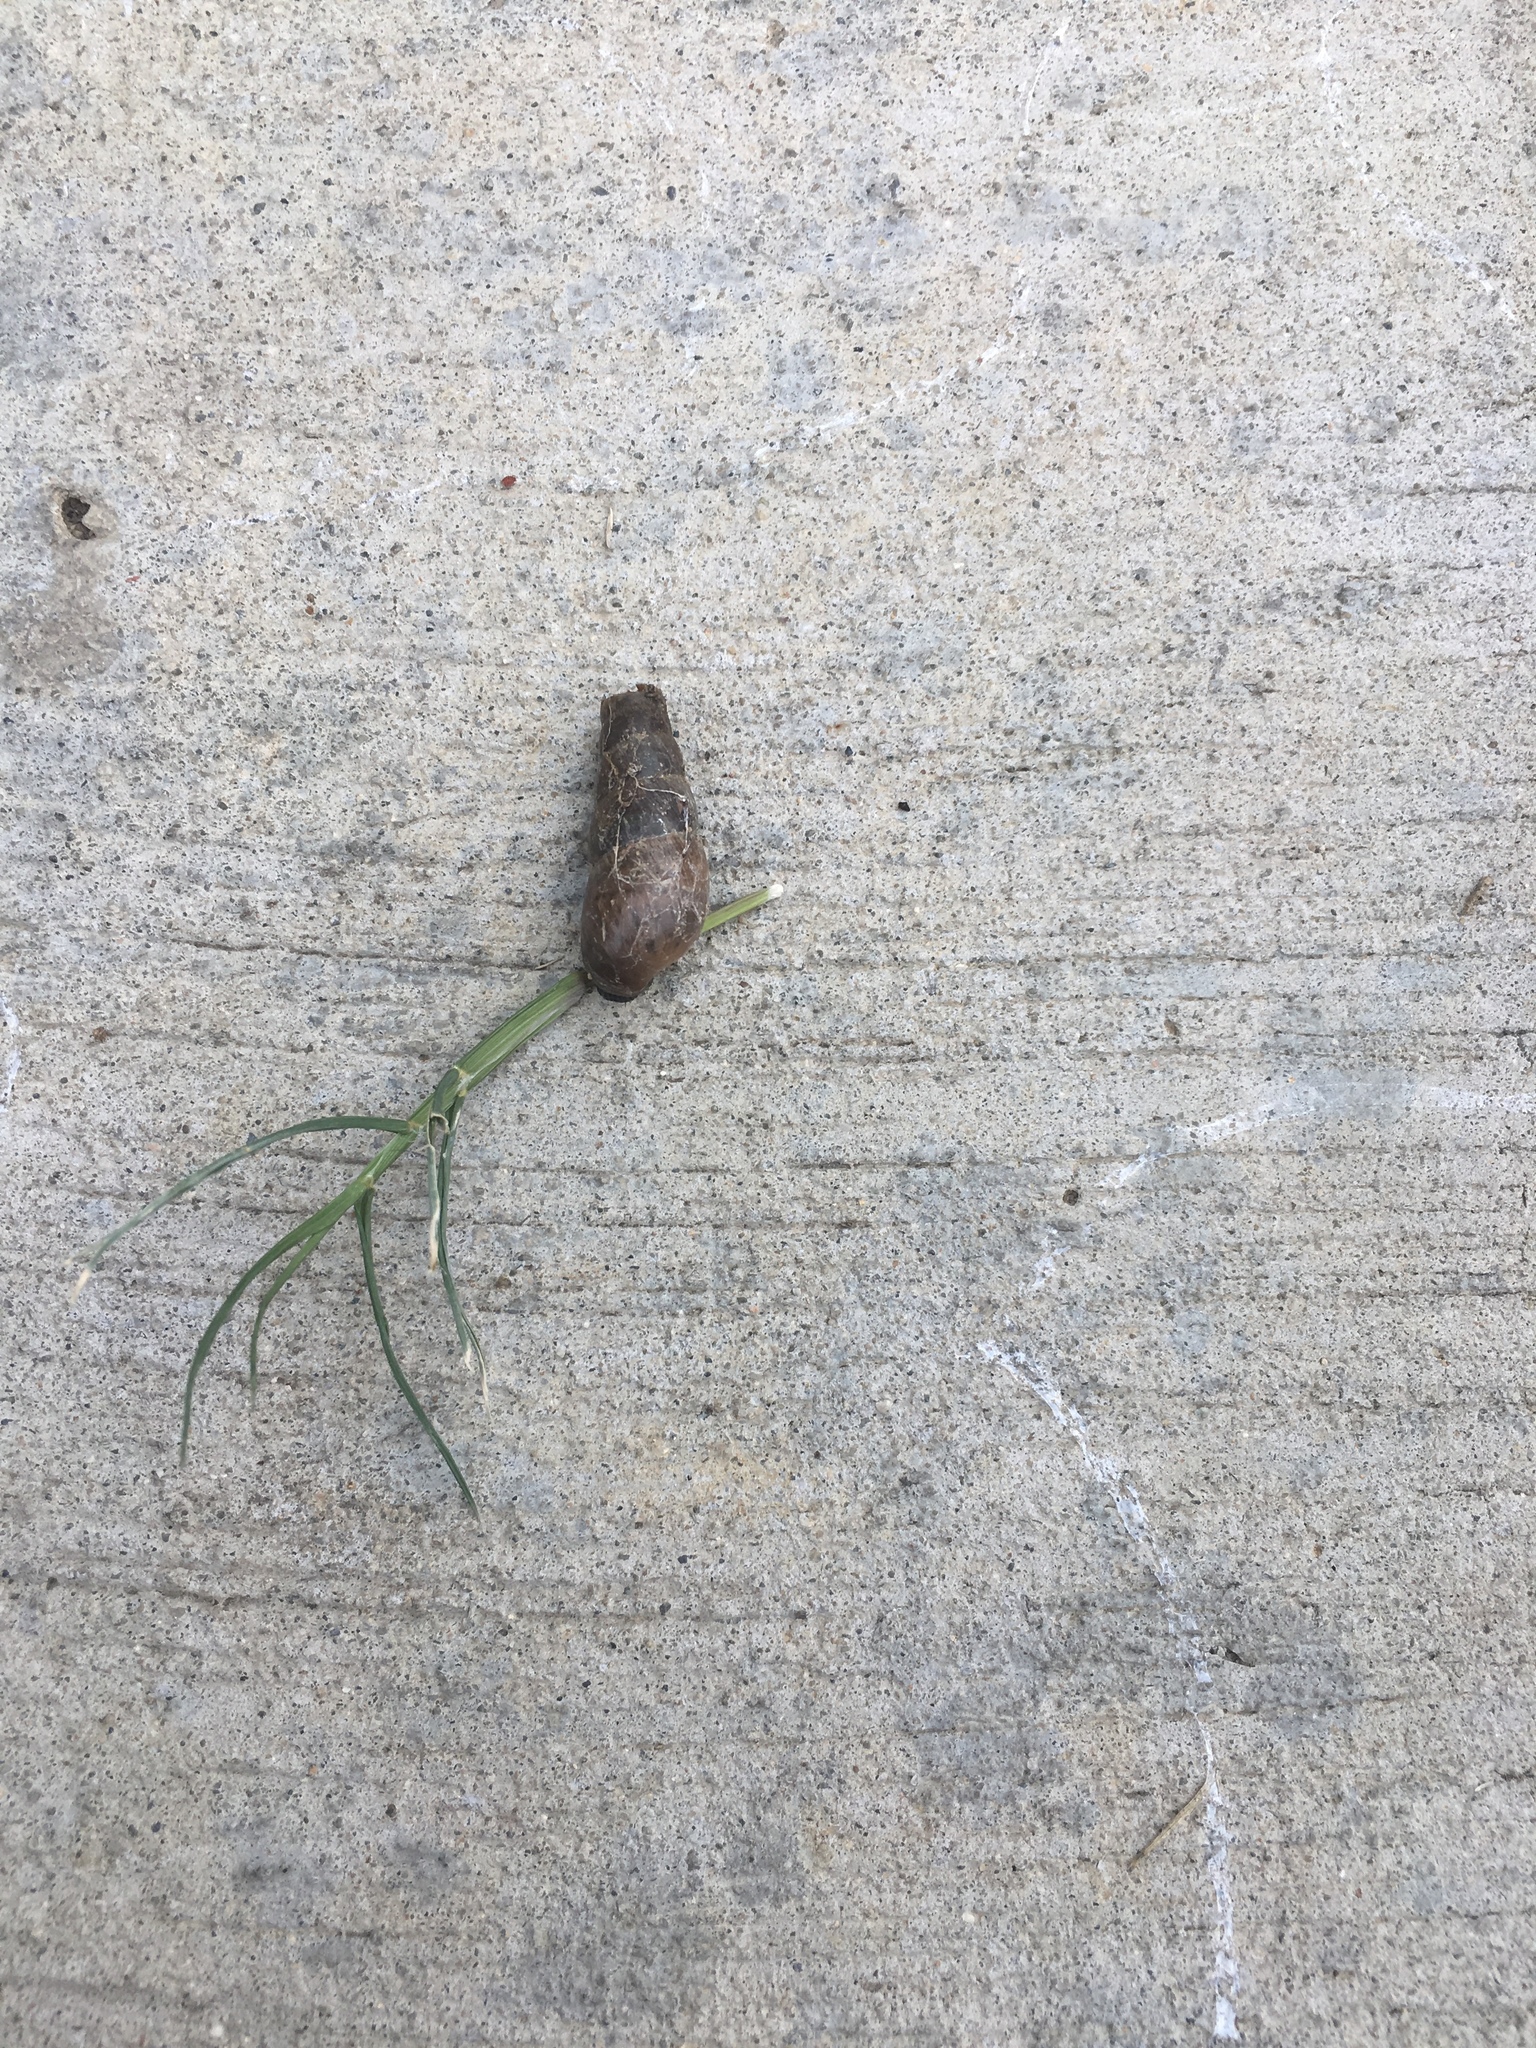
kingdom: Animalia
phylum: Mollusca
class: Gastropoda
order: Stylommatophora
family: Achatinidae
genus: Rumina
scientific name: Rumina decollata
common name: Decollate snail
